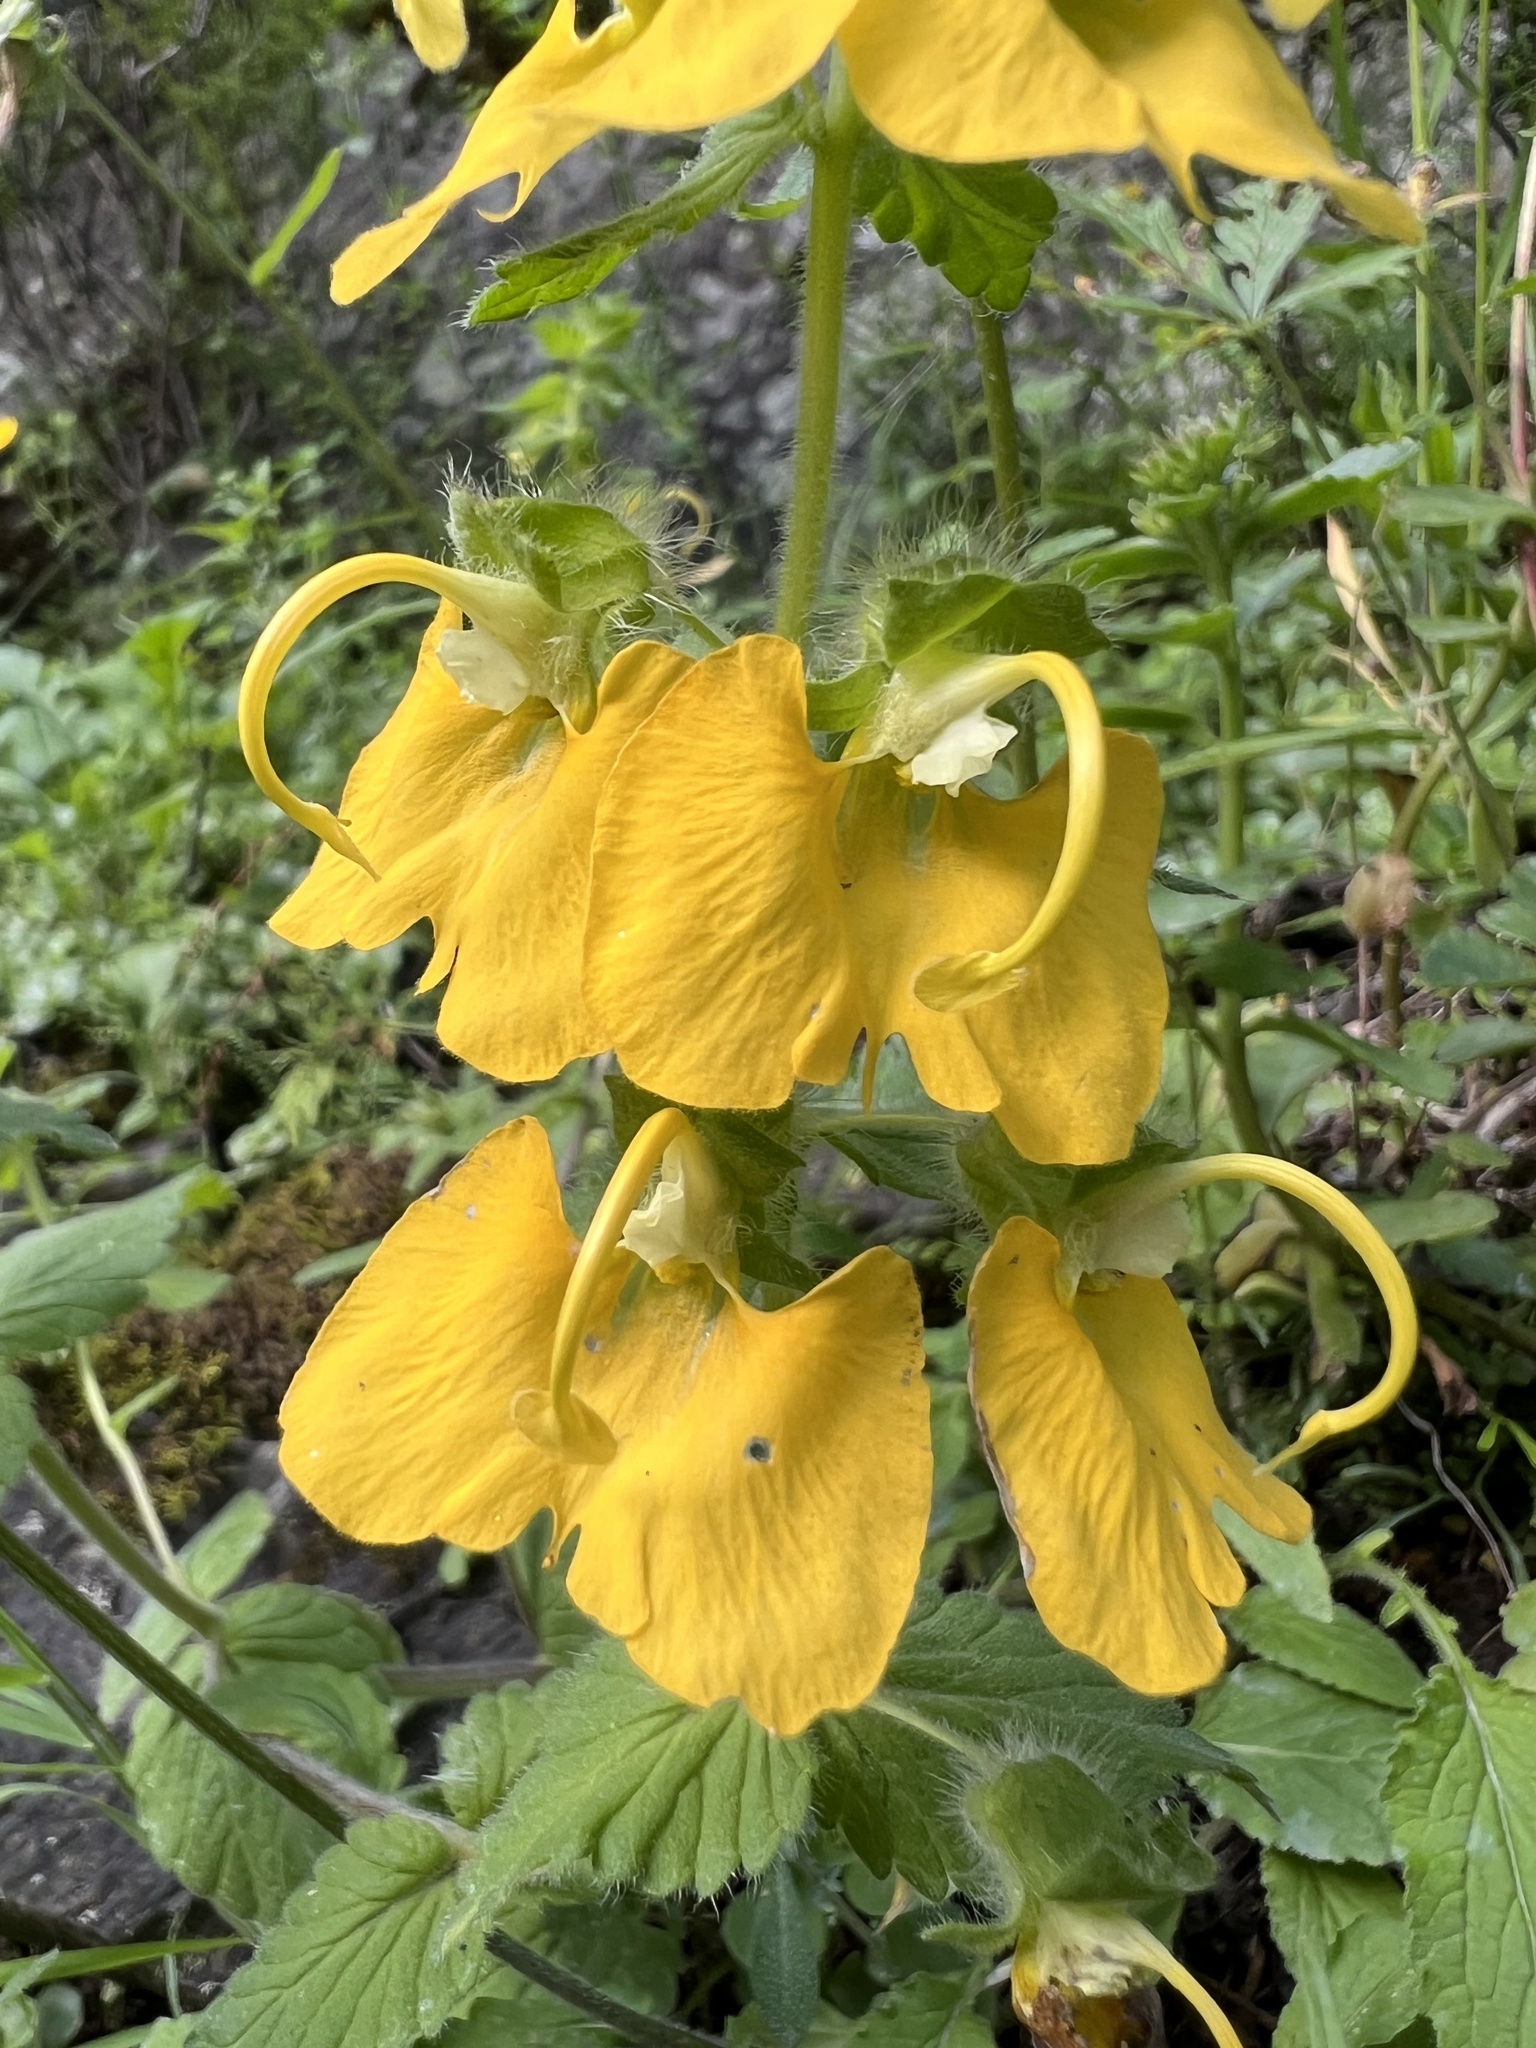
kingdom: Plantae
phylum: Tracheophyta
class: Magnoliopsida
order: Lamiales
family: Orobanchaceae
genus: Rhynchocorys
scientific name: Rhynchocorys orientalis
